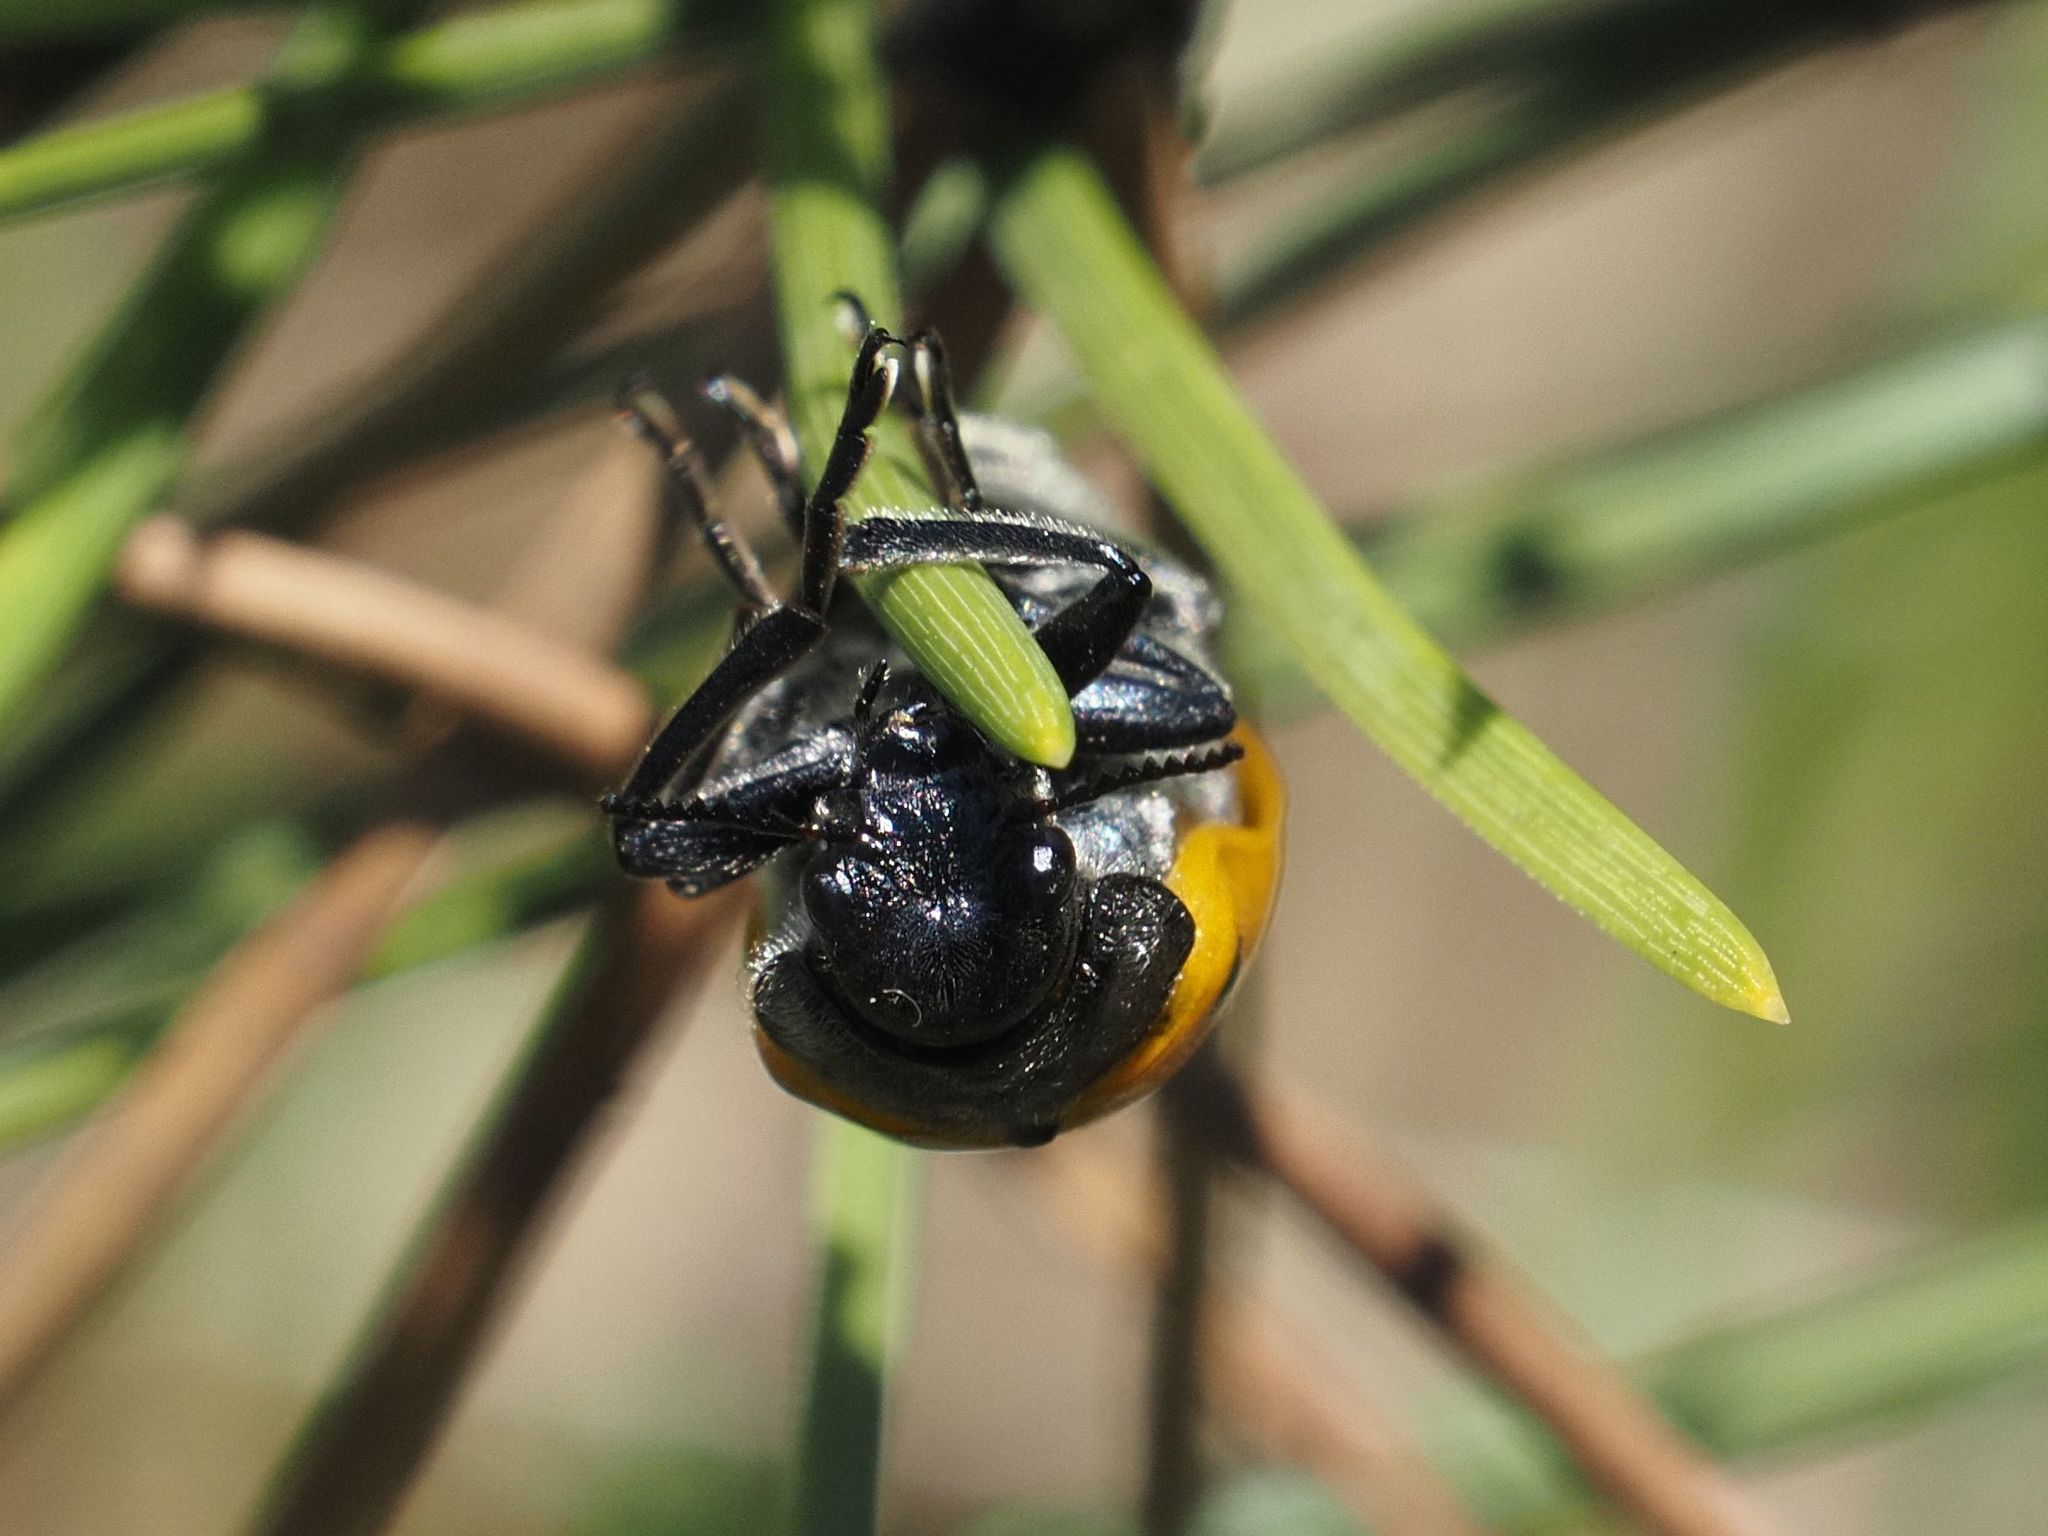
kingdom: Animalia
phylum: Arthropoda
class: Insecta
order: Coleoptera
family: Chrysomelidae
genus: Lachnaia
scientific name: Lachnaia sexpunctata
